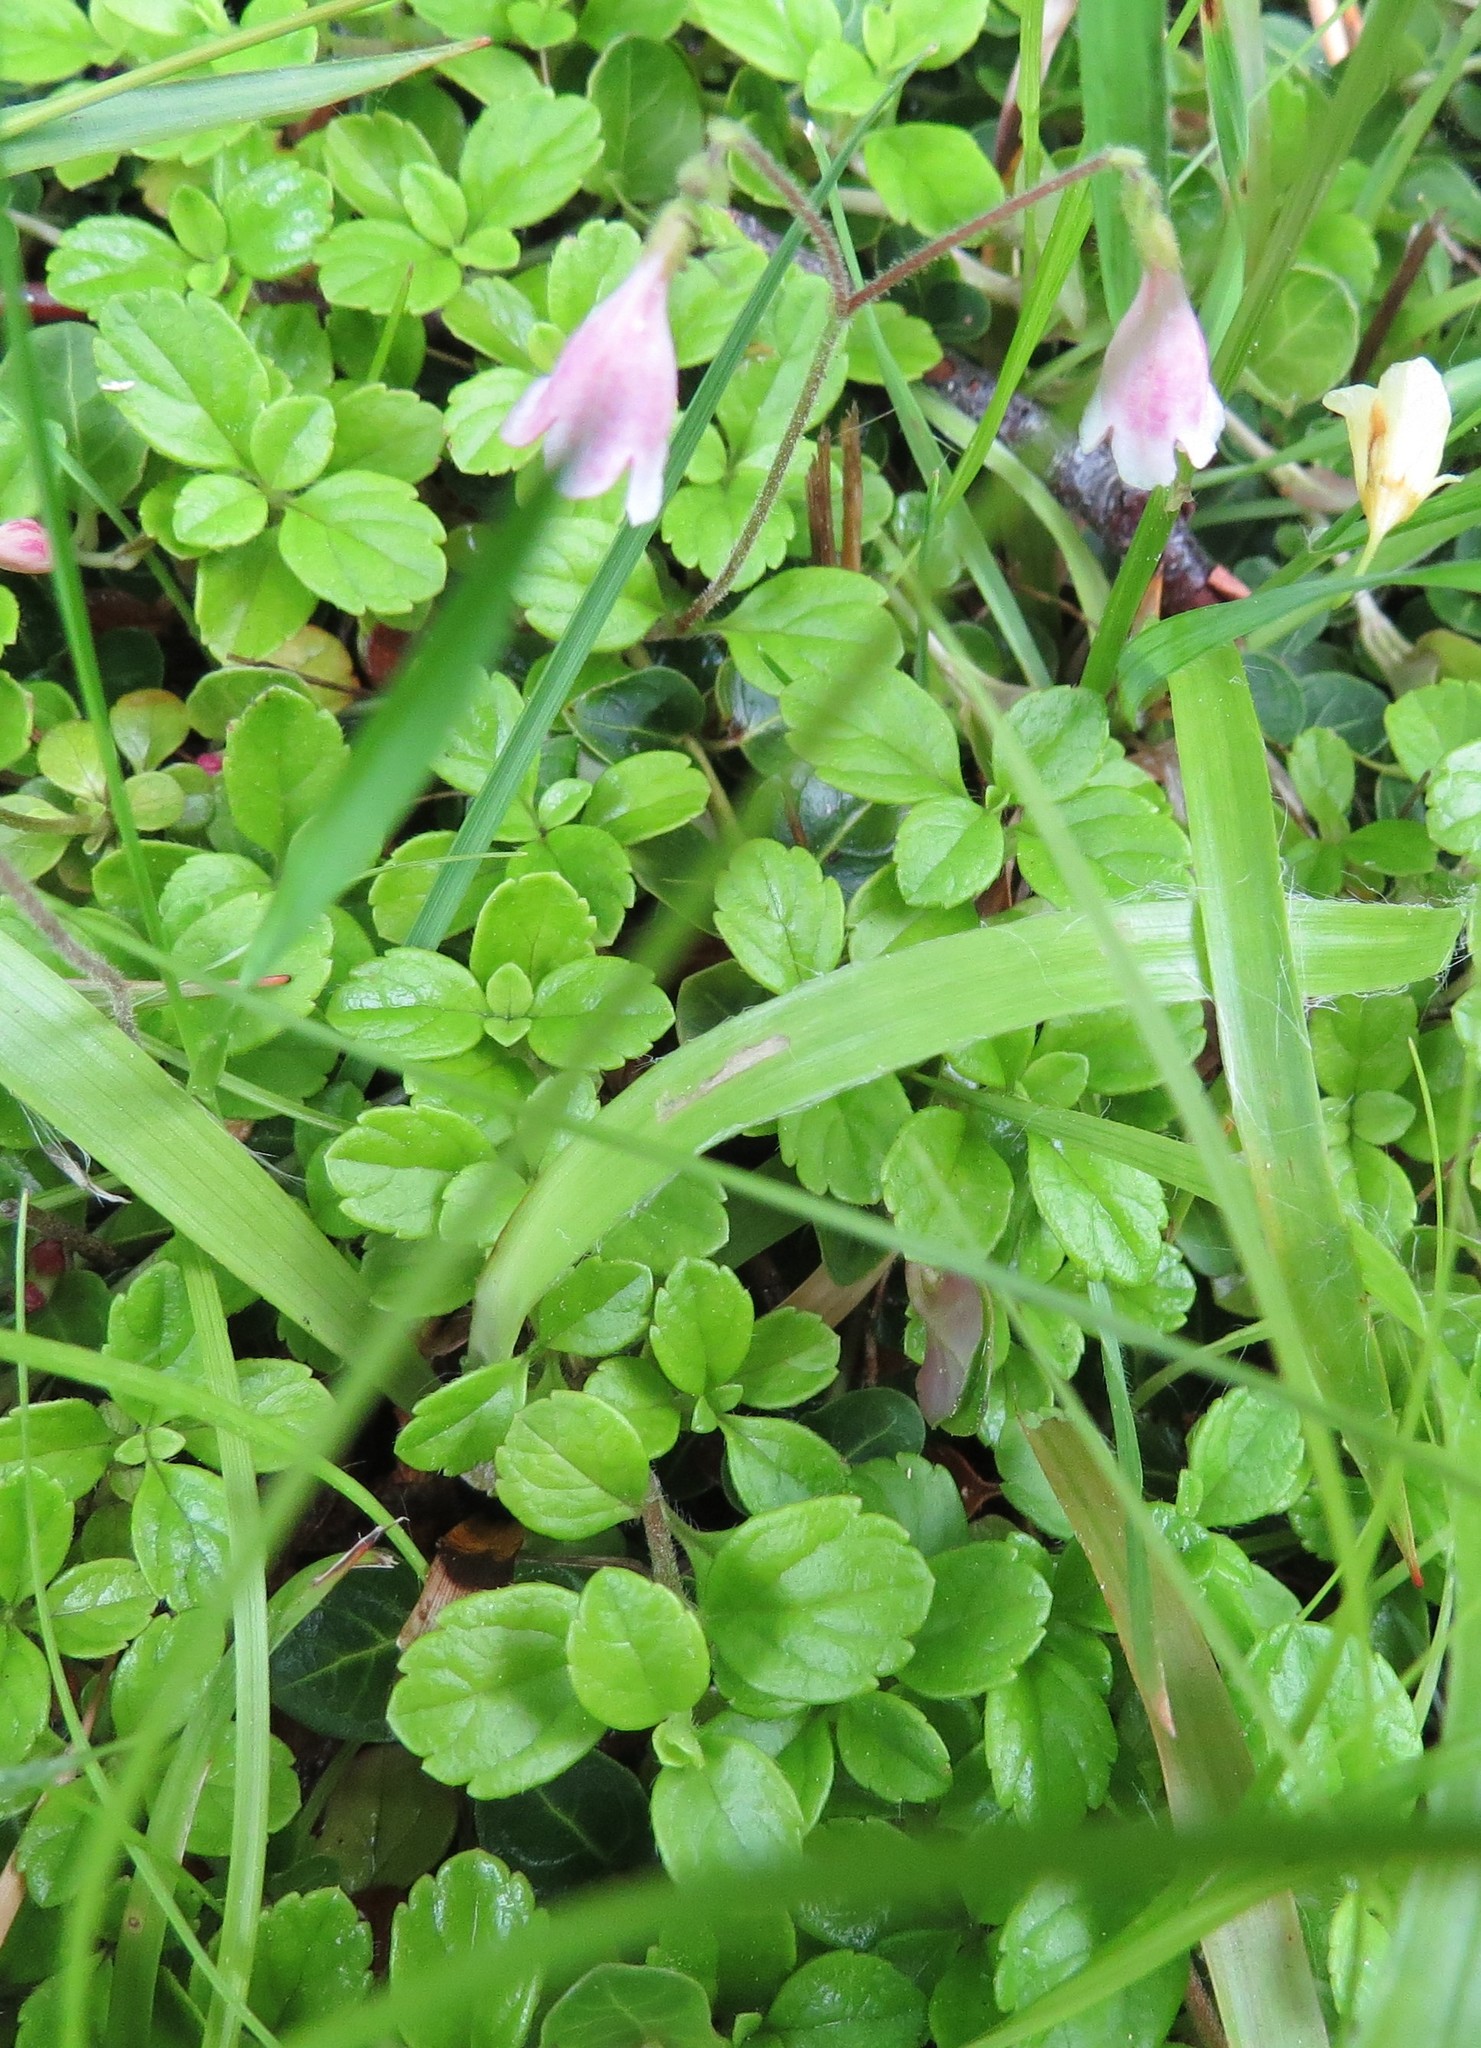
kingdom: Plantae
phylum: Tracheophyta
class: Magnoliopsida
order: Dipsacales
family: Caprifoliaceae
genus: Linnaea
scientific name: Linnaea borealis
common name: Twinflower
